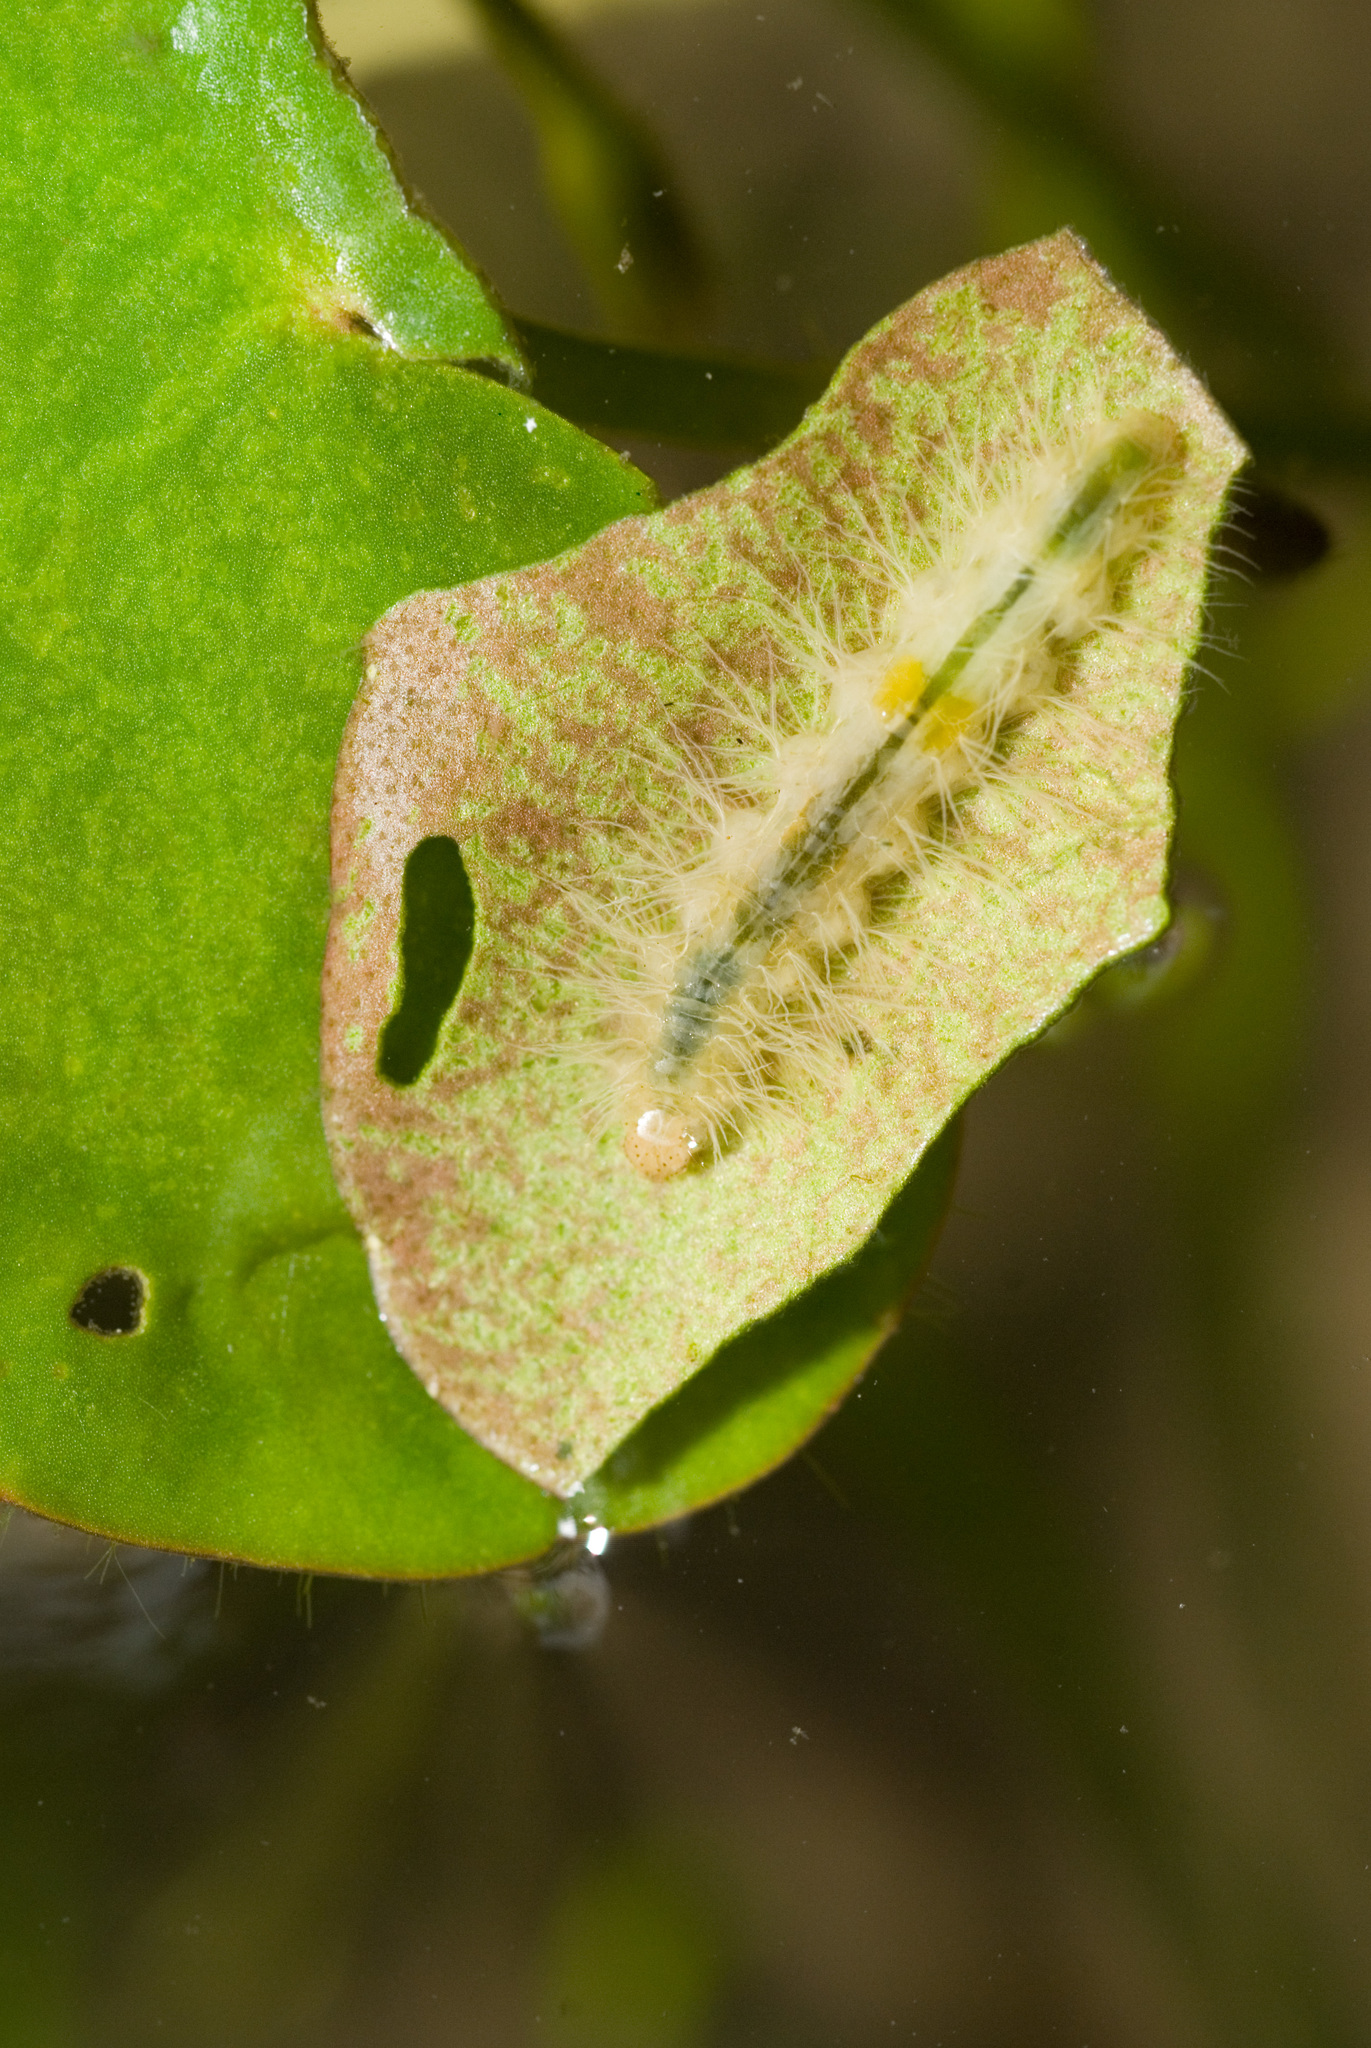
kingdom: Animalia
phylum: Arthropoda
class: Insecta
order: Lepidoptera
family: Crambidae
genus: Parapoynx
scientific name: Parapoynx crisonalis
